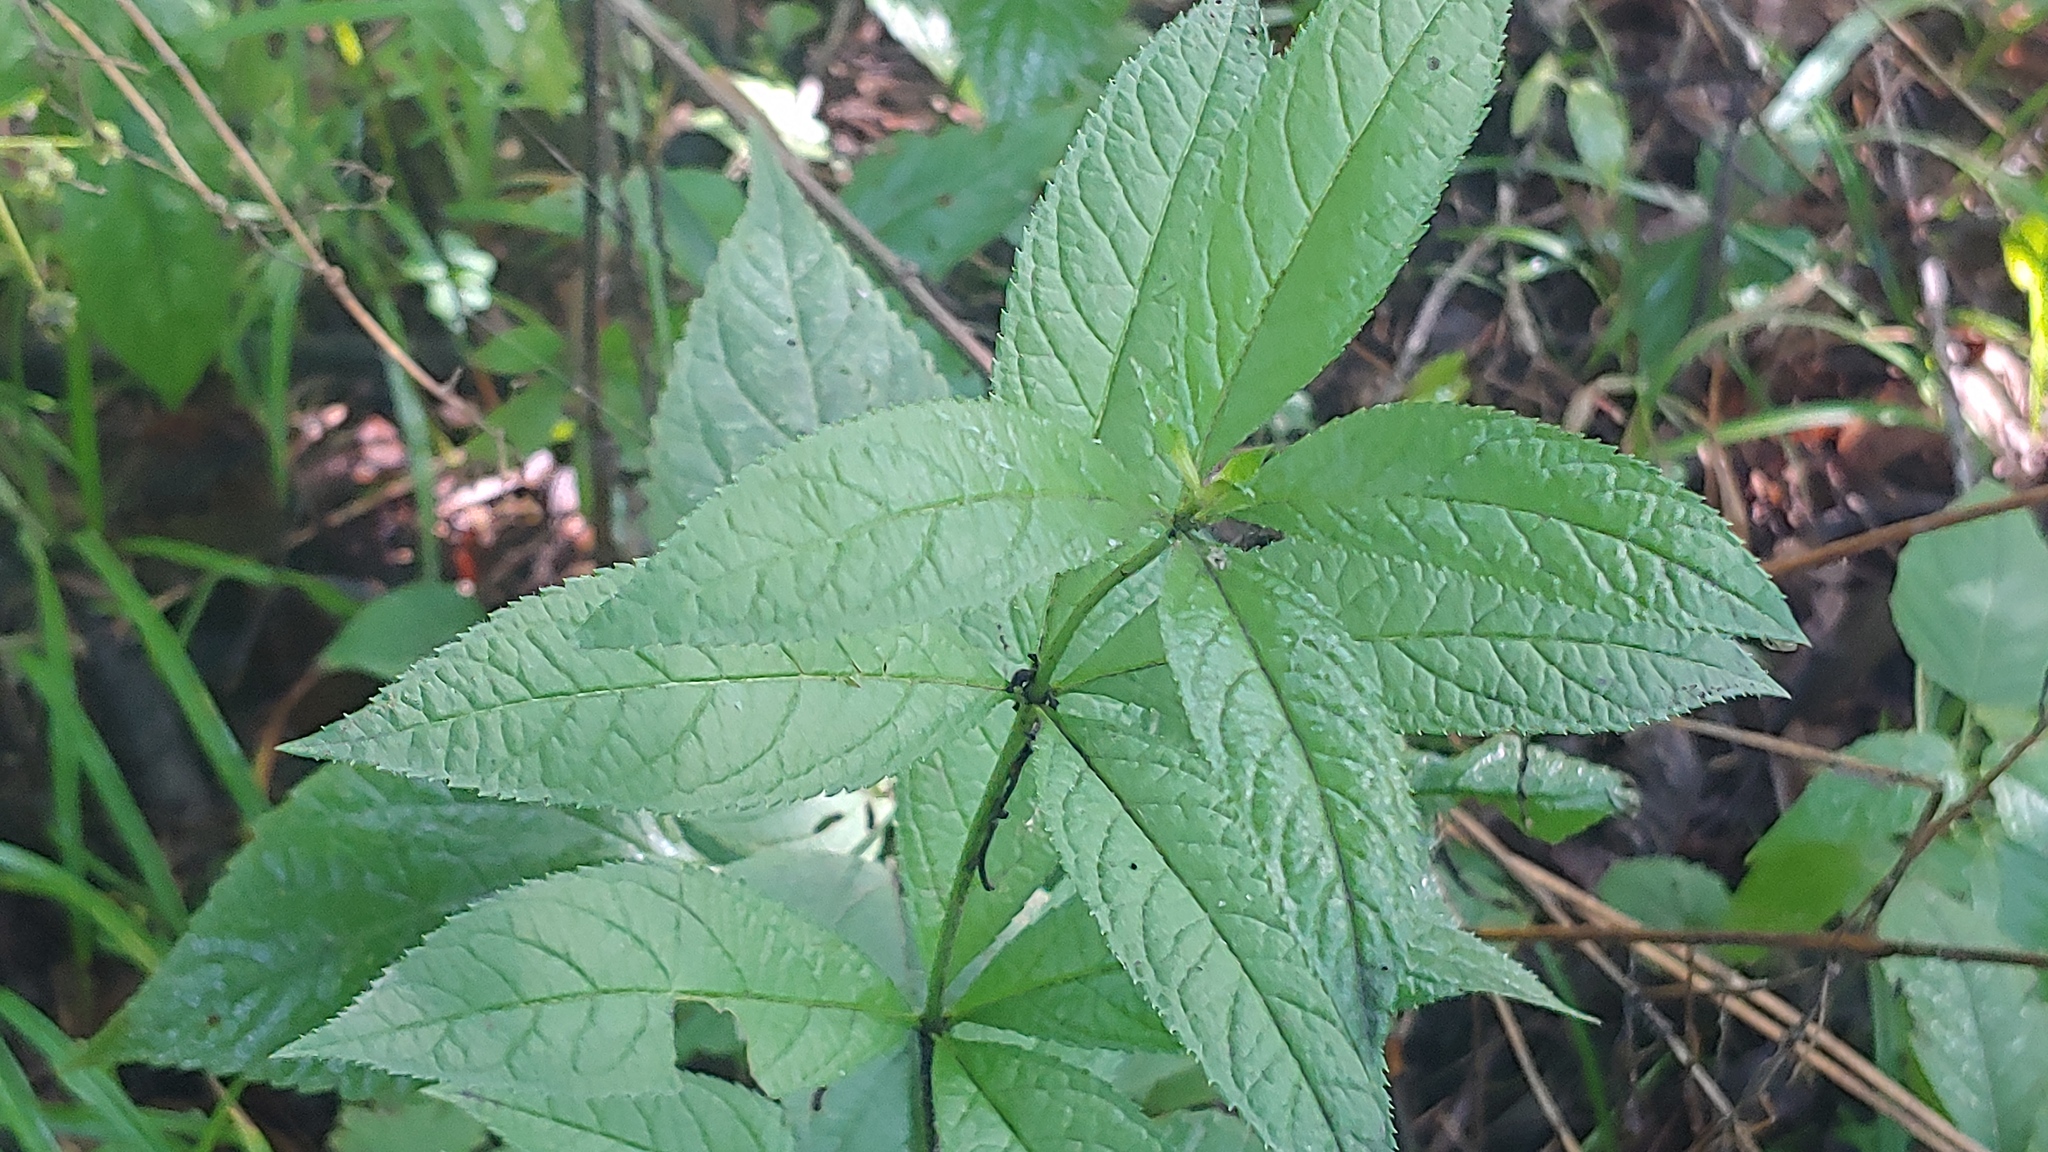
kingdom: Plantae
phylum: Tracheophyta
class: Magnoliopsida
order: Lamiales
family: Plantaginaceae
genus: Veronicastrum
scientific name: Veronicastrum virginicum
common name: Blackroot
